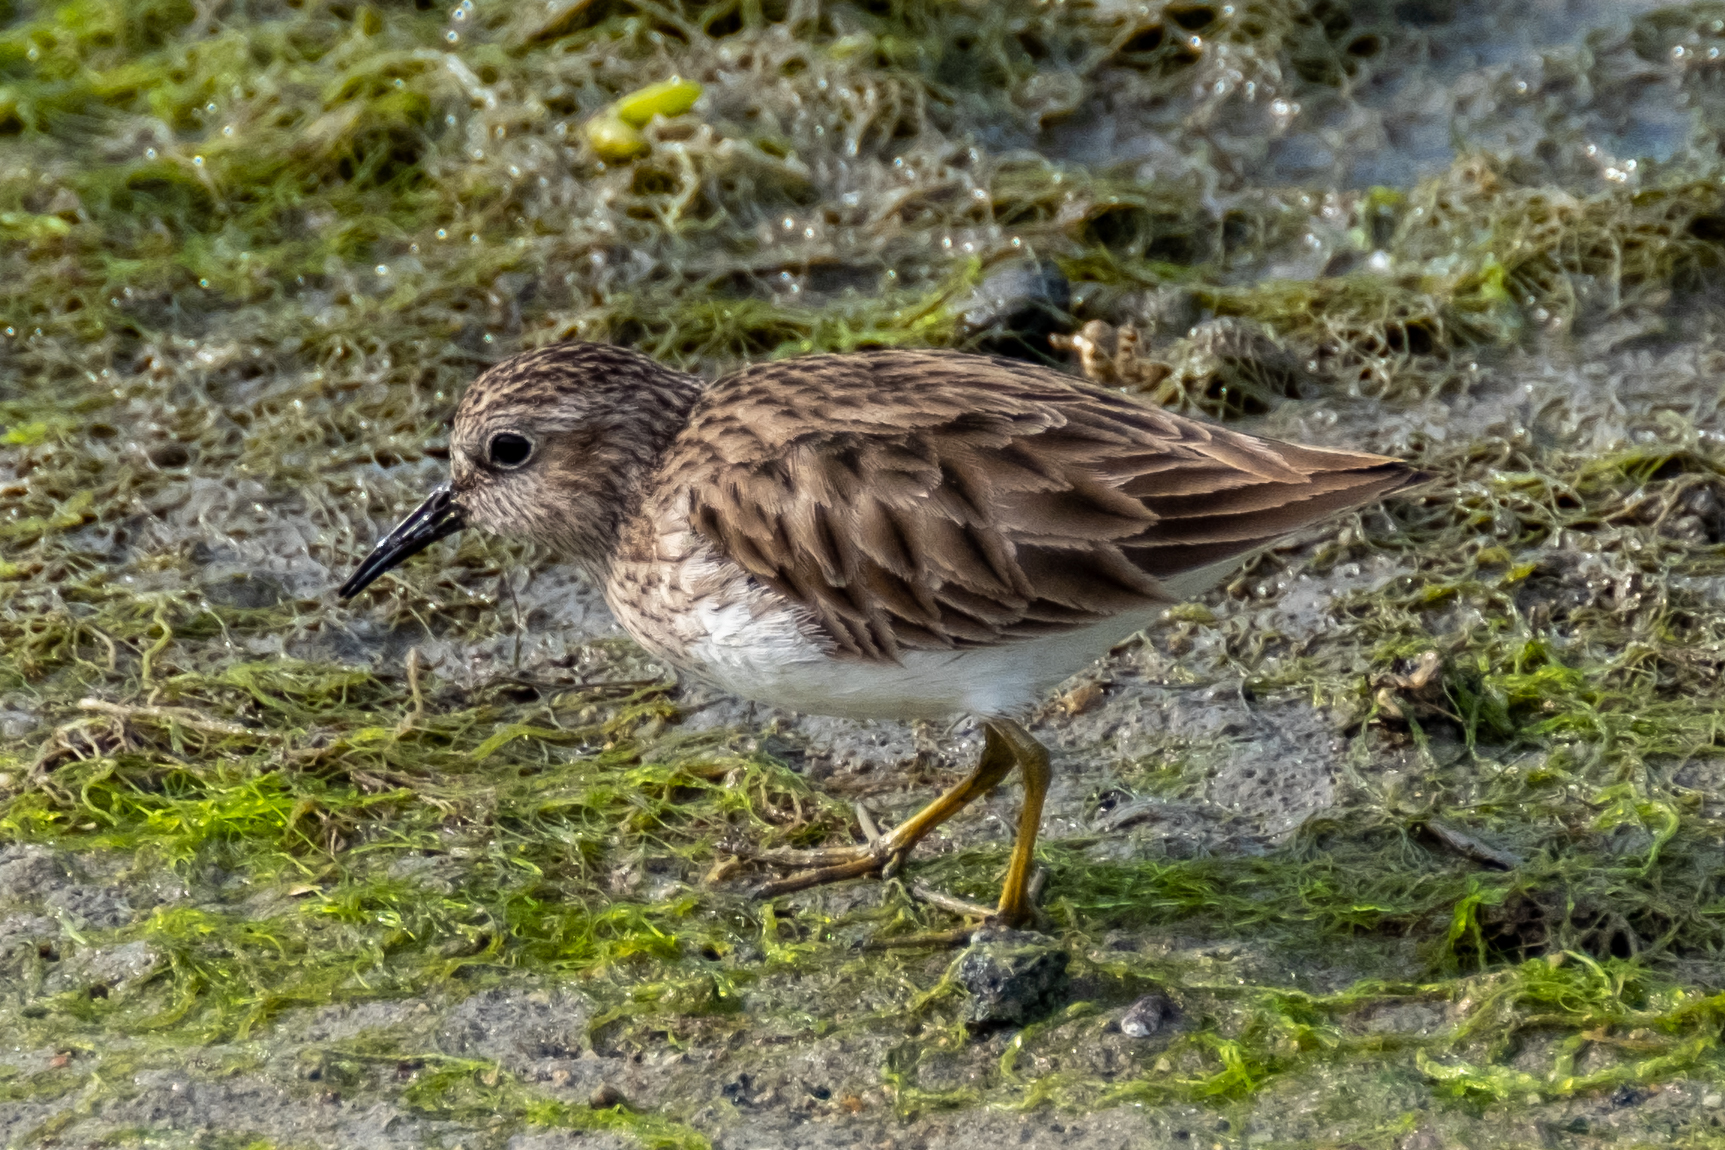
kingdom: Animalia
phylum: Chordata
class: Aves
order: Charadriiformes
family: Scolopacidae
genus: Calidris
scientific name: Calidris minutilla
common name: Least sandpiper
